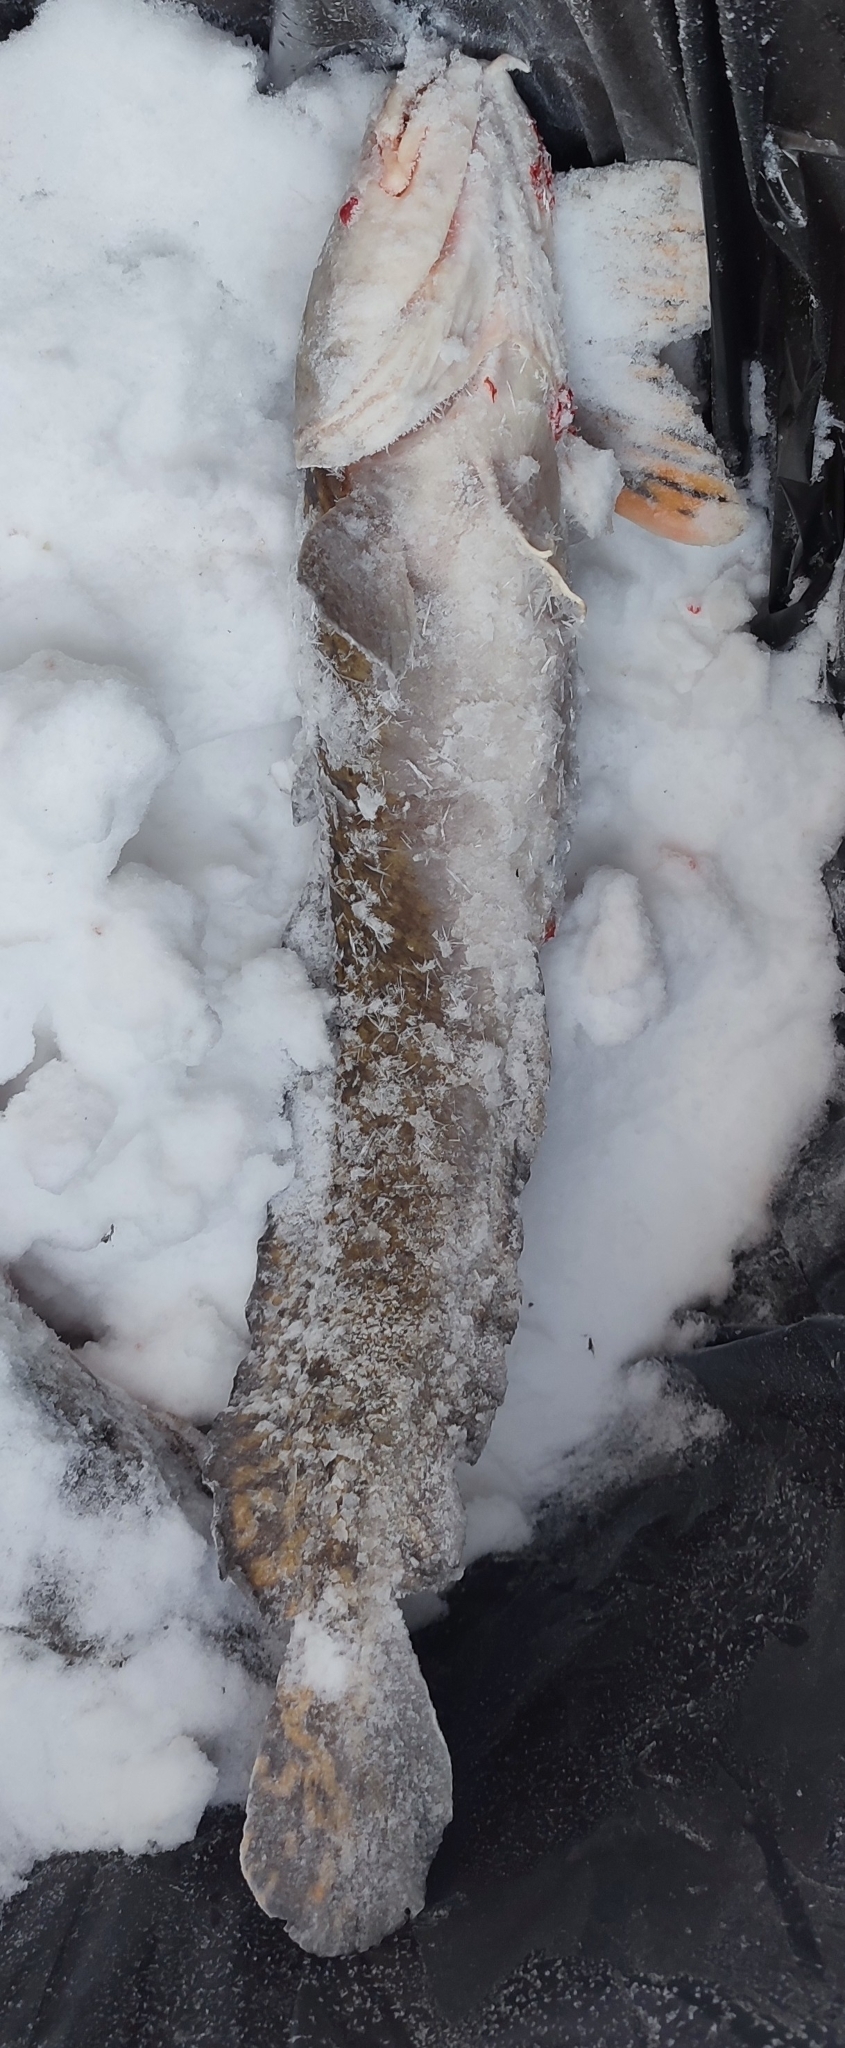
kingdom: Animalia
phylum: Chordata
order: Gadiformes
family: Lotidae
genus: Lota
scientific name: Lota lota
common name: Burbot
